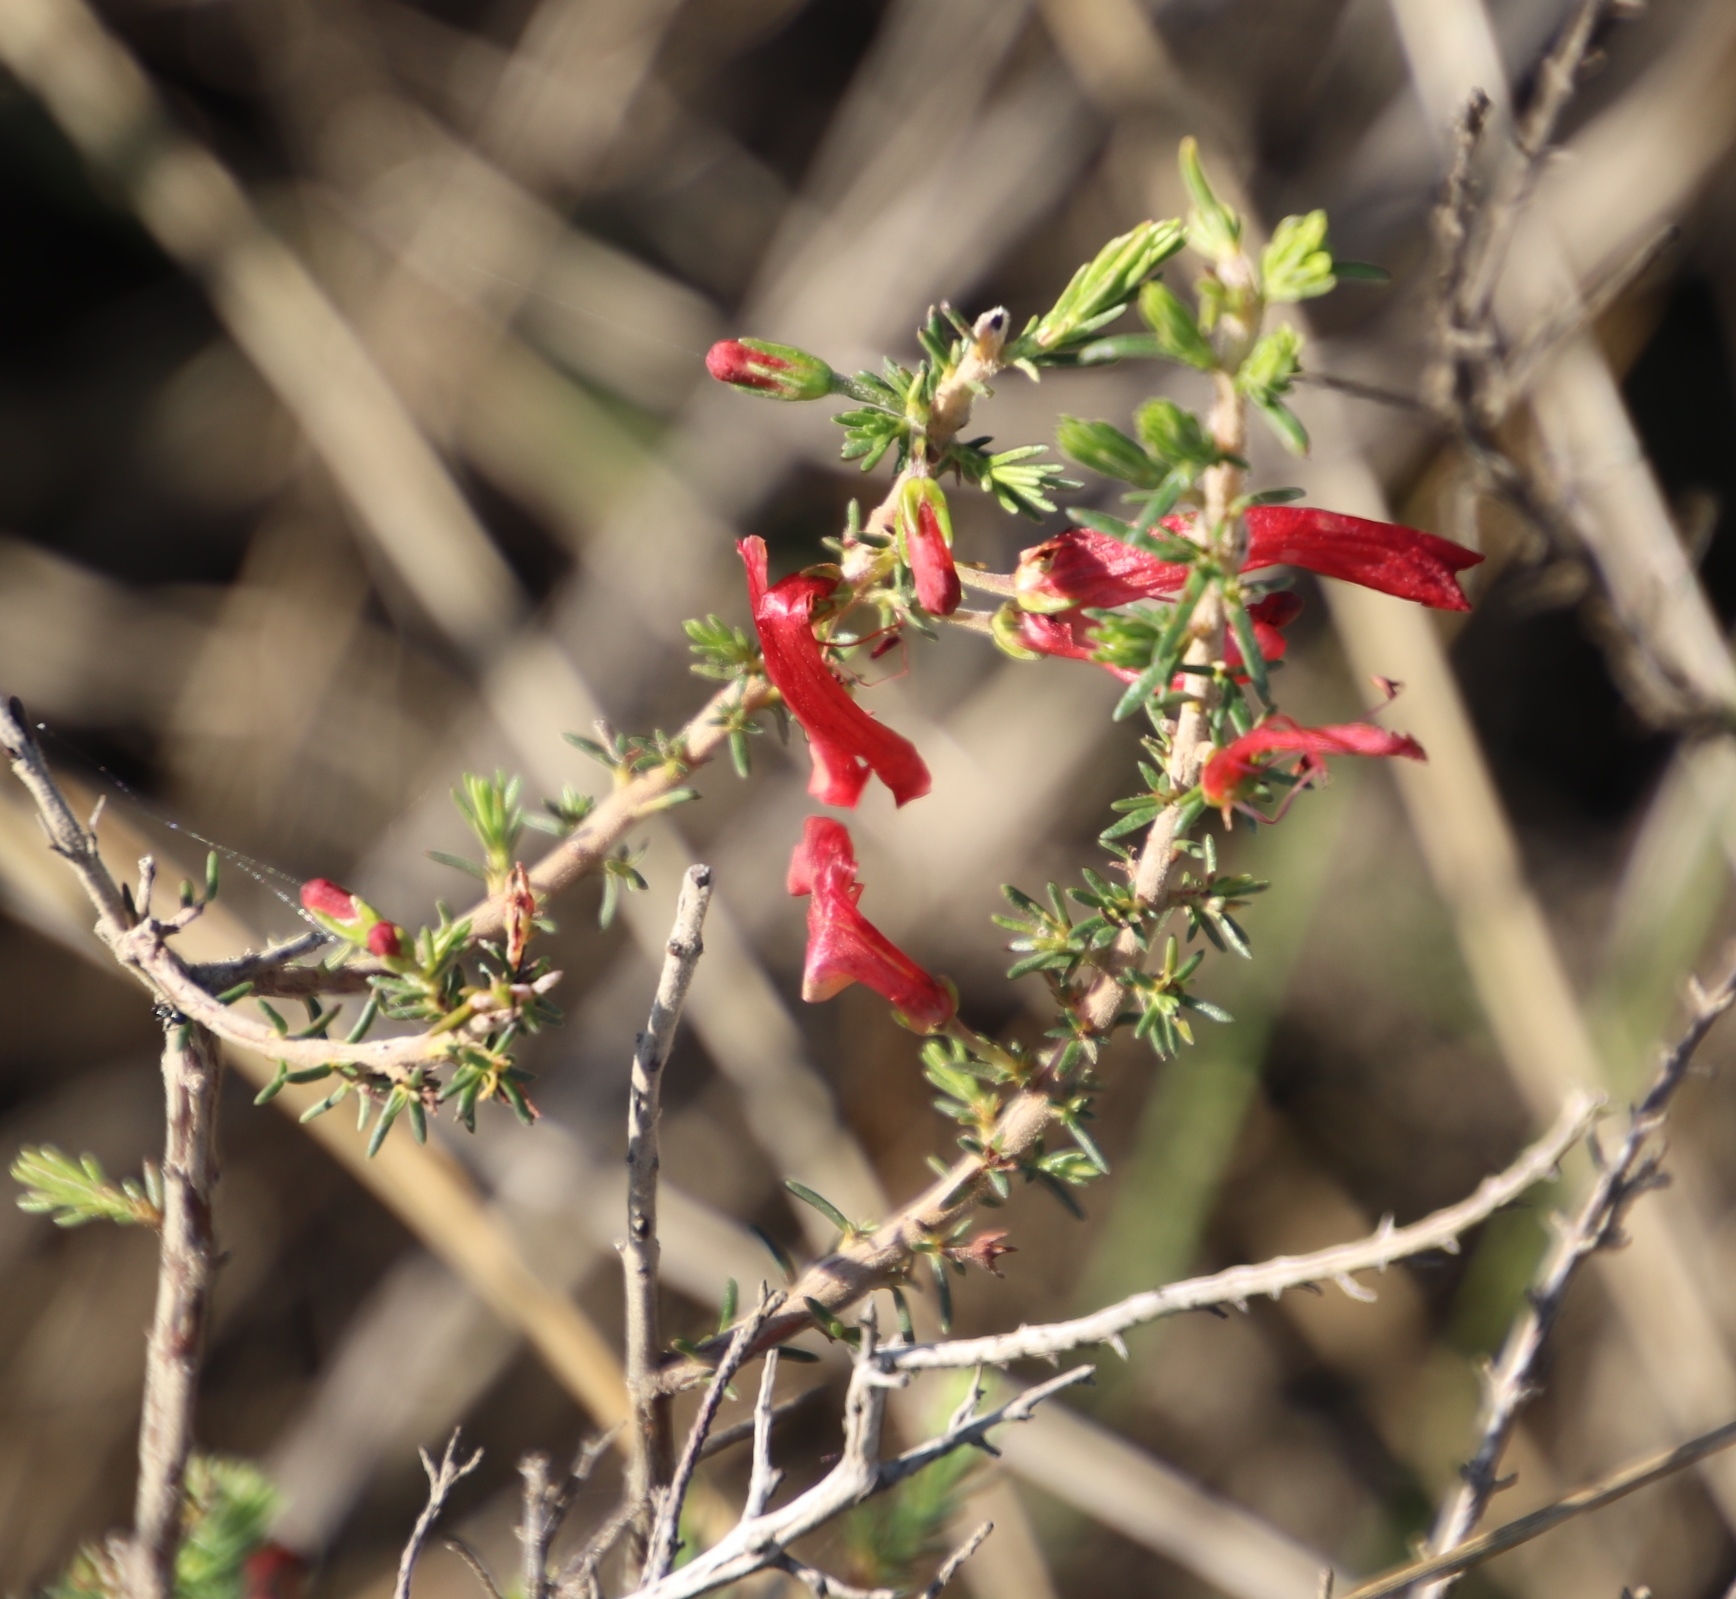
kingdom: Plantae
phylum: Tracheophyta
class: Magnoliopsida
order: Ericales
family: Ericaceae
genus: Erica
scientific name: Erica cruenta
